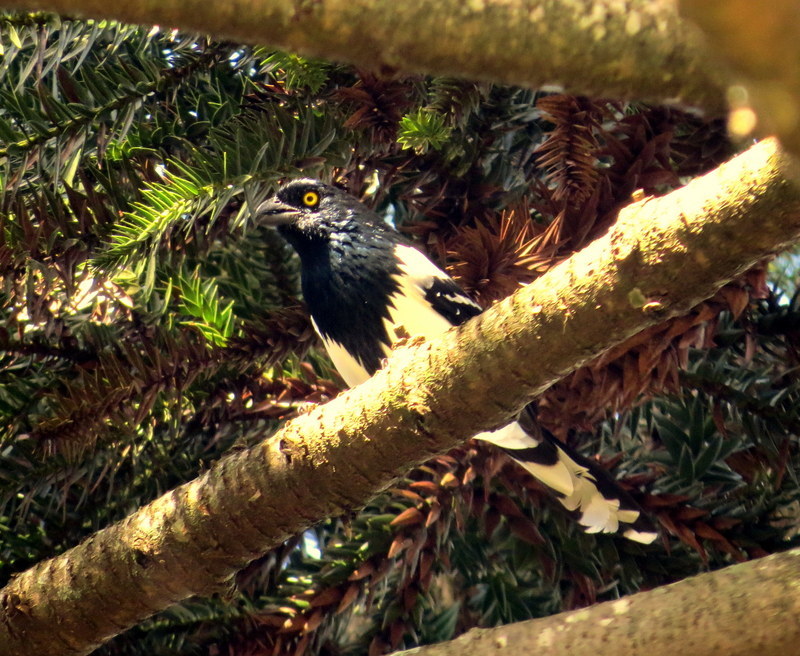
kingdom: Animalia
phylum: Chordata
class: Aves
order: Passeriformes
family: Thraupidae
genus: Cissopis
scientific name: Cissopis leverianus
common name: Magpie tanager
